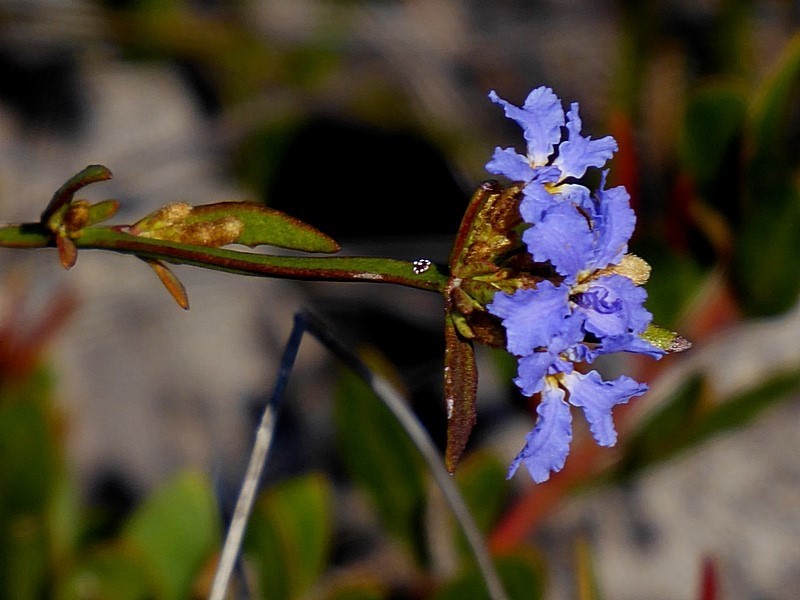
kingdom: Plantae
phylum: Tracheophyta
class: Magnoliopsida
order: Asterales
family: Goodeniaceae
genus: Dampiera
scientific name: Dampiera stricta
